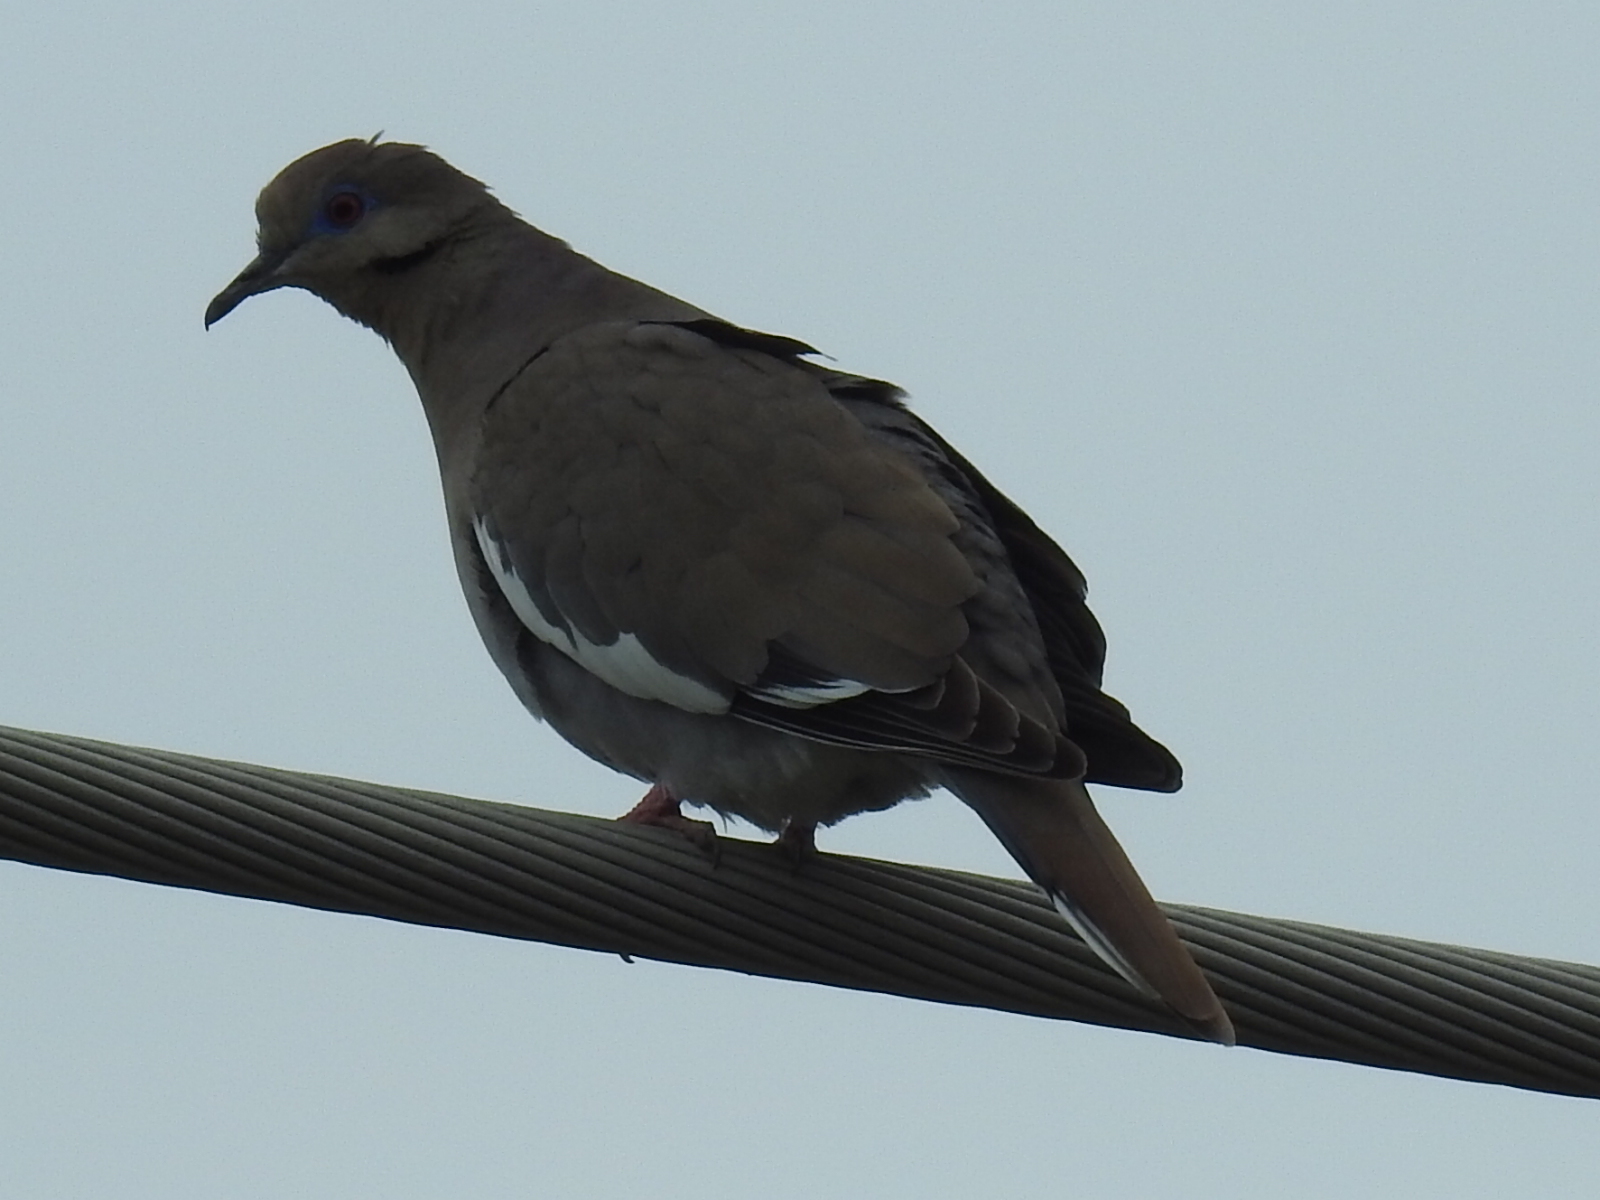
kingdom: Animalia
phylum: Chordata
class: Aves
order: Columbiformes
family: Columbidae
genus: Zenaida
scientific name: Zenaida asiatica
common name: White-winged dove
